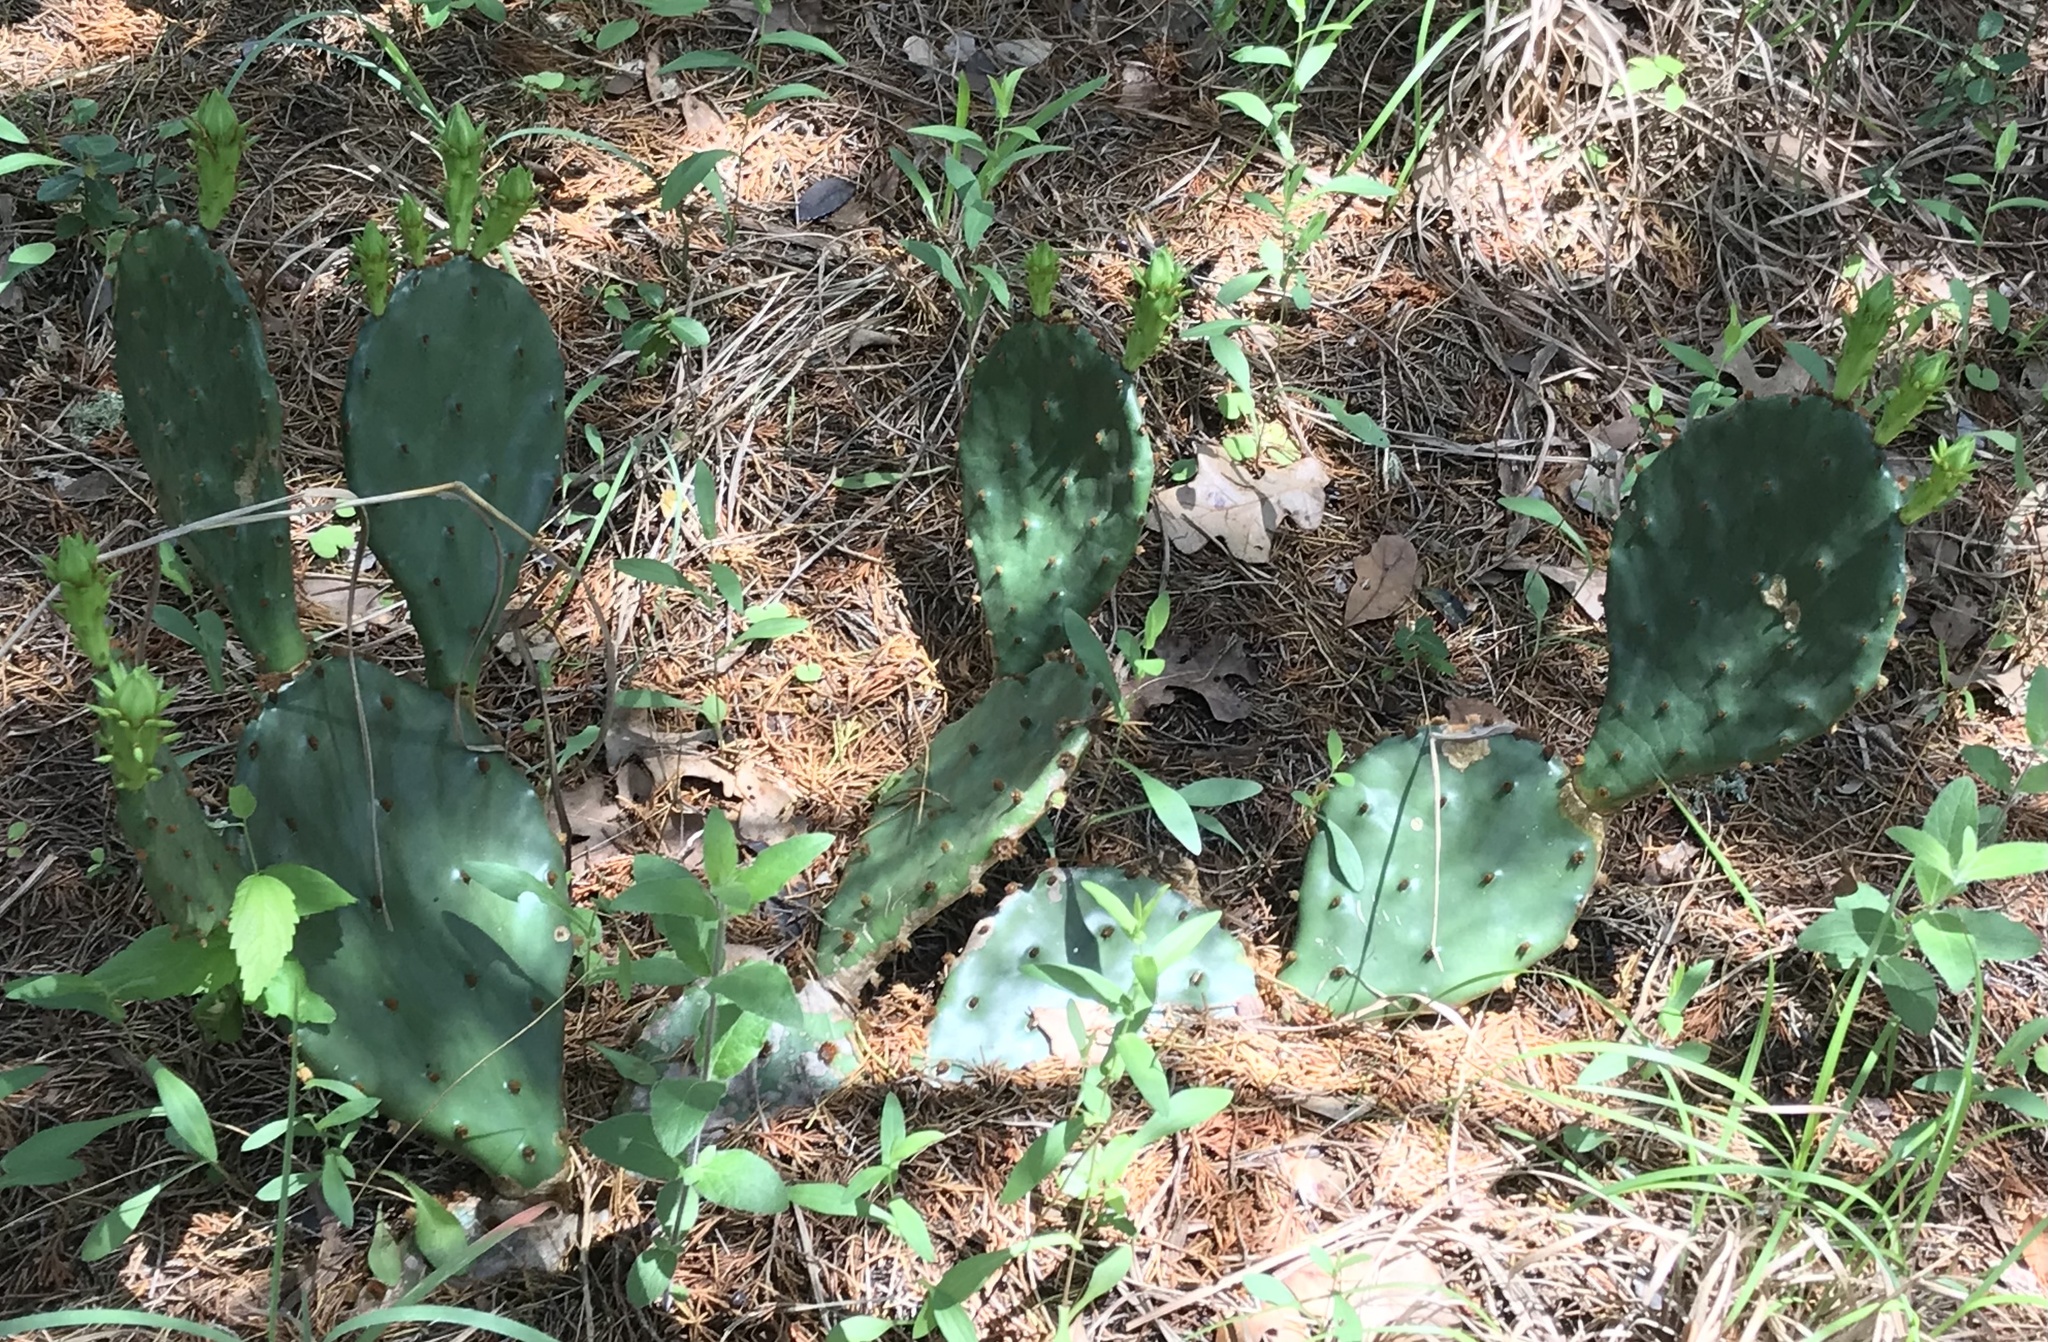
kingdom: Plantae
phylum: Tracheophyta
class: Magnoliopsida
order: Caryophyllales
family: Cactaceae
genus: Opuntia
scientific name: Opuntia humifusa
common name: Eastern prickly-pear
